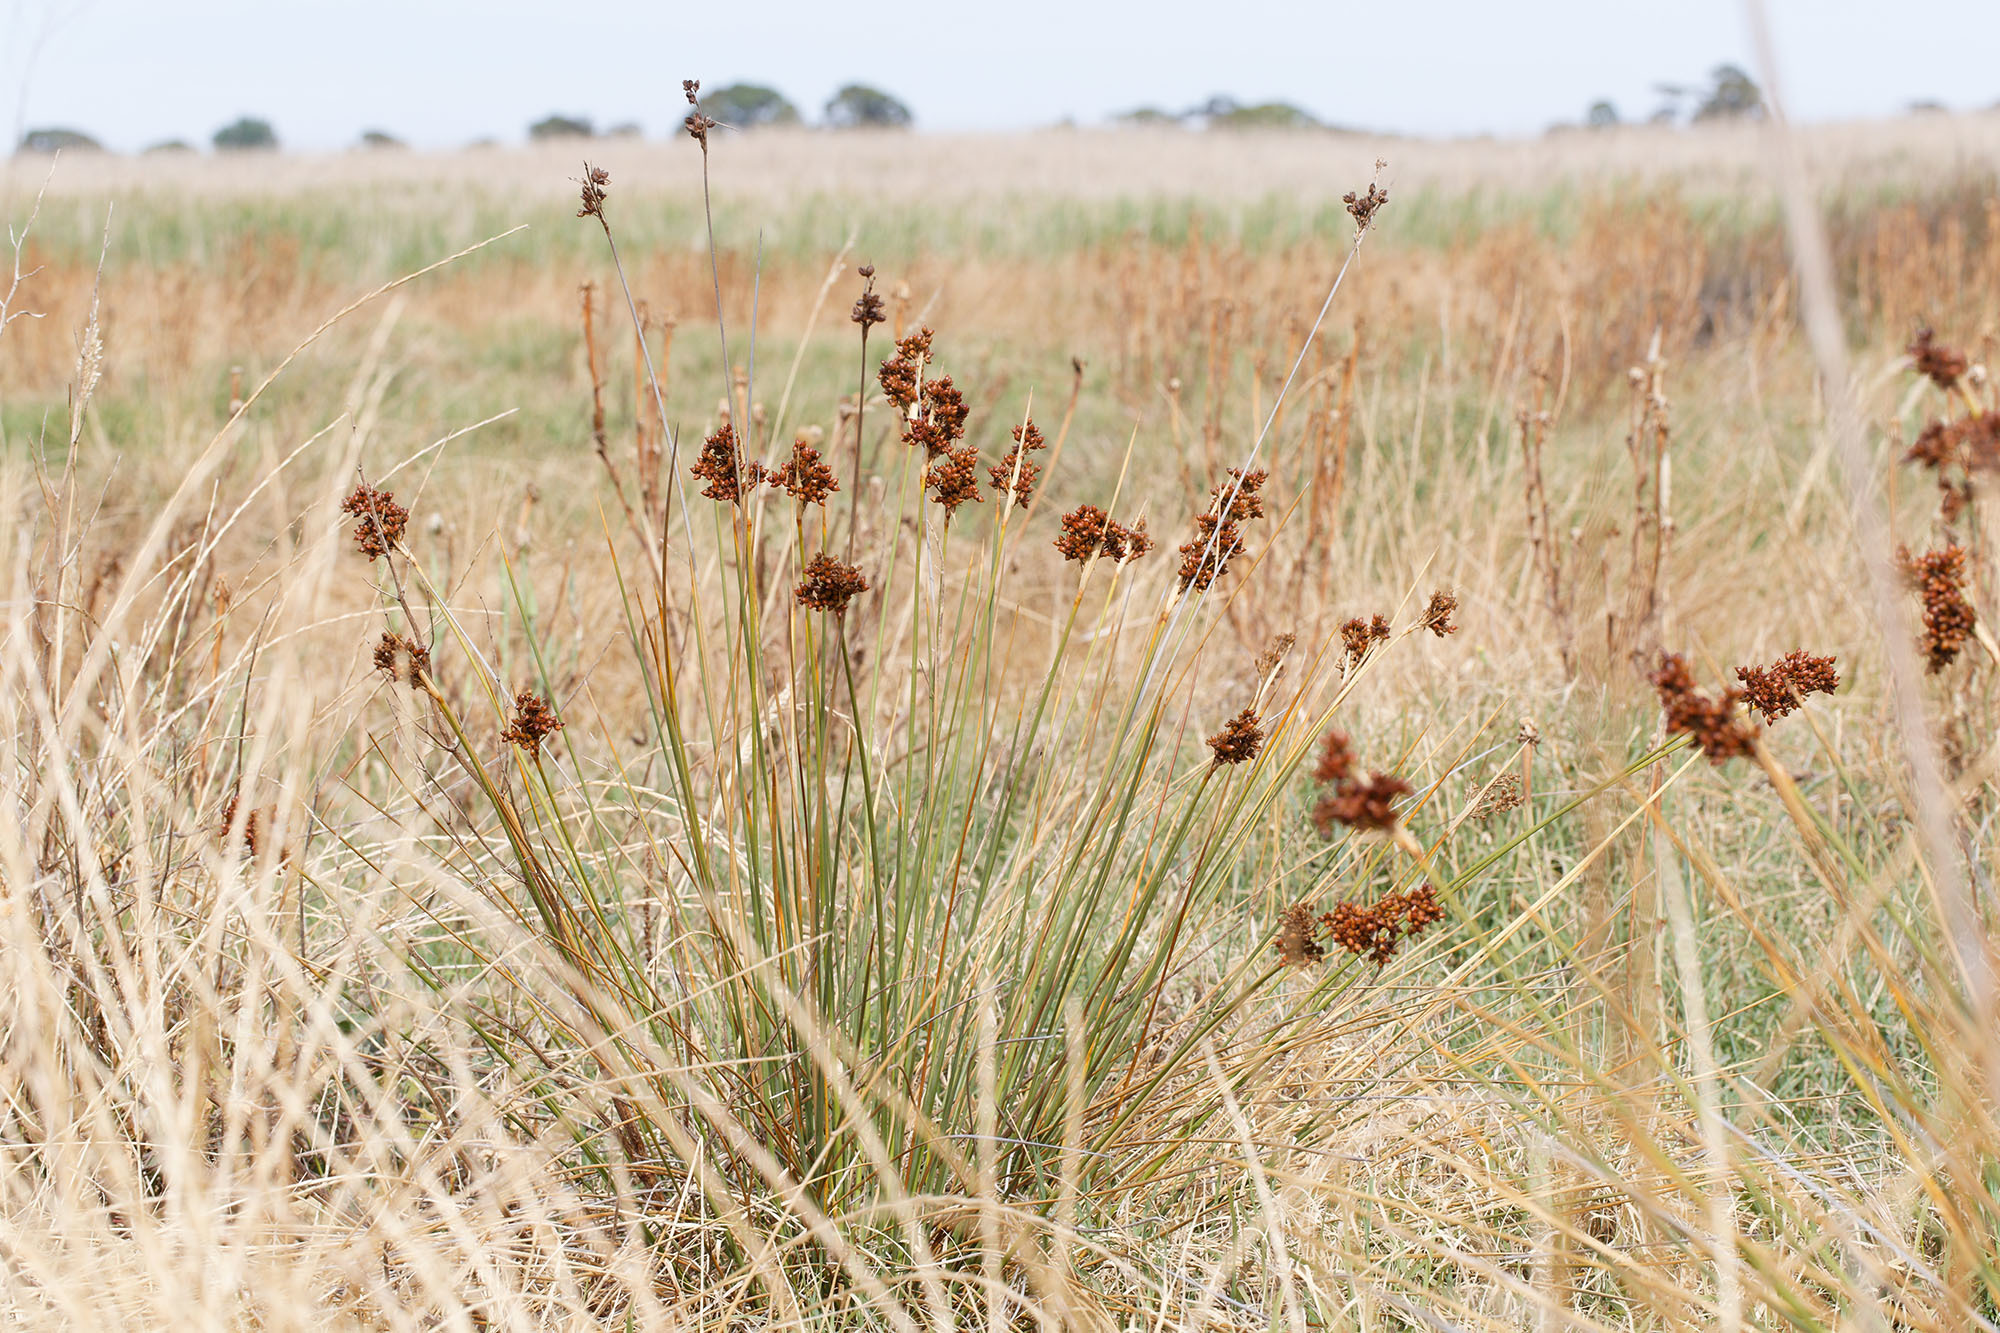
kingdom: Plantae
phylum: Tracheophyta
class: Liliopsida
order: Poales
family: Juncaceae
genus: Juncus
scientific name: Juncus acutus
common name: Sharp rush
